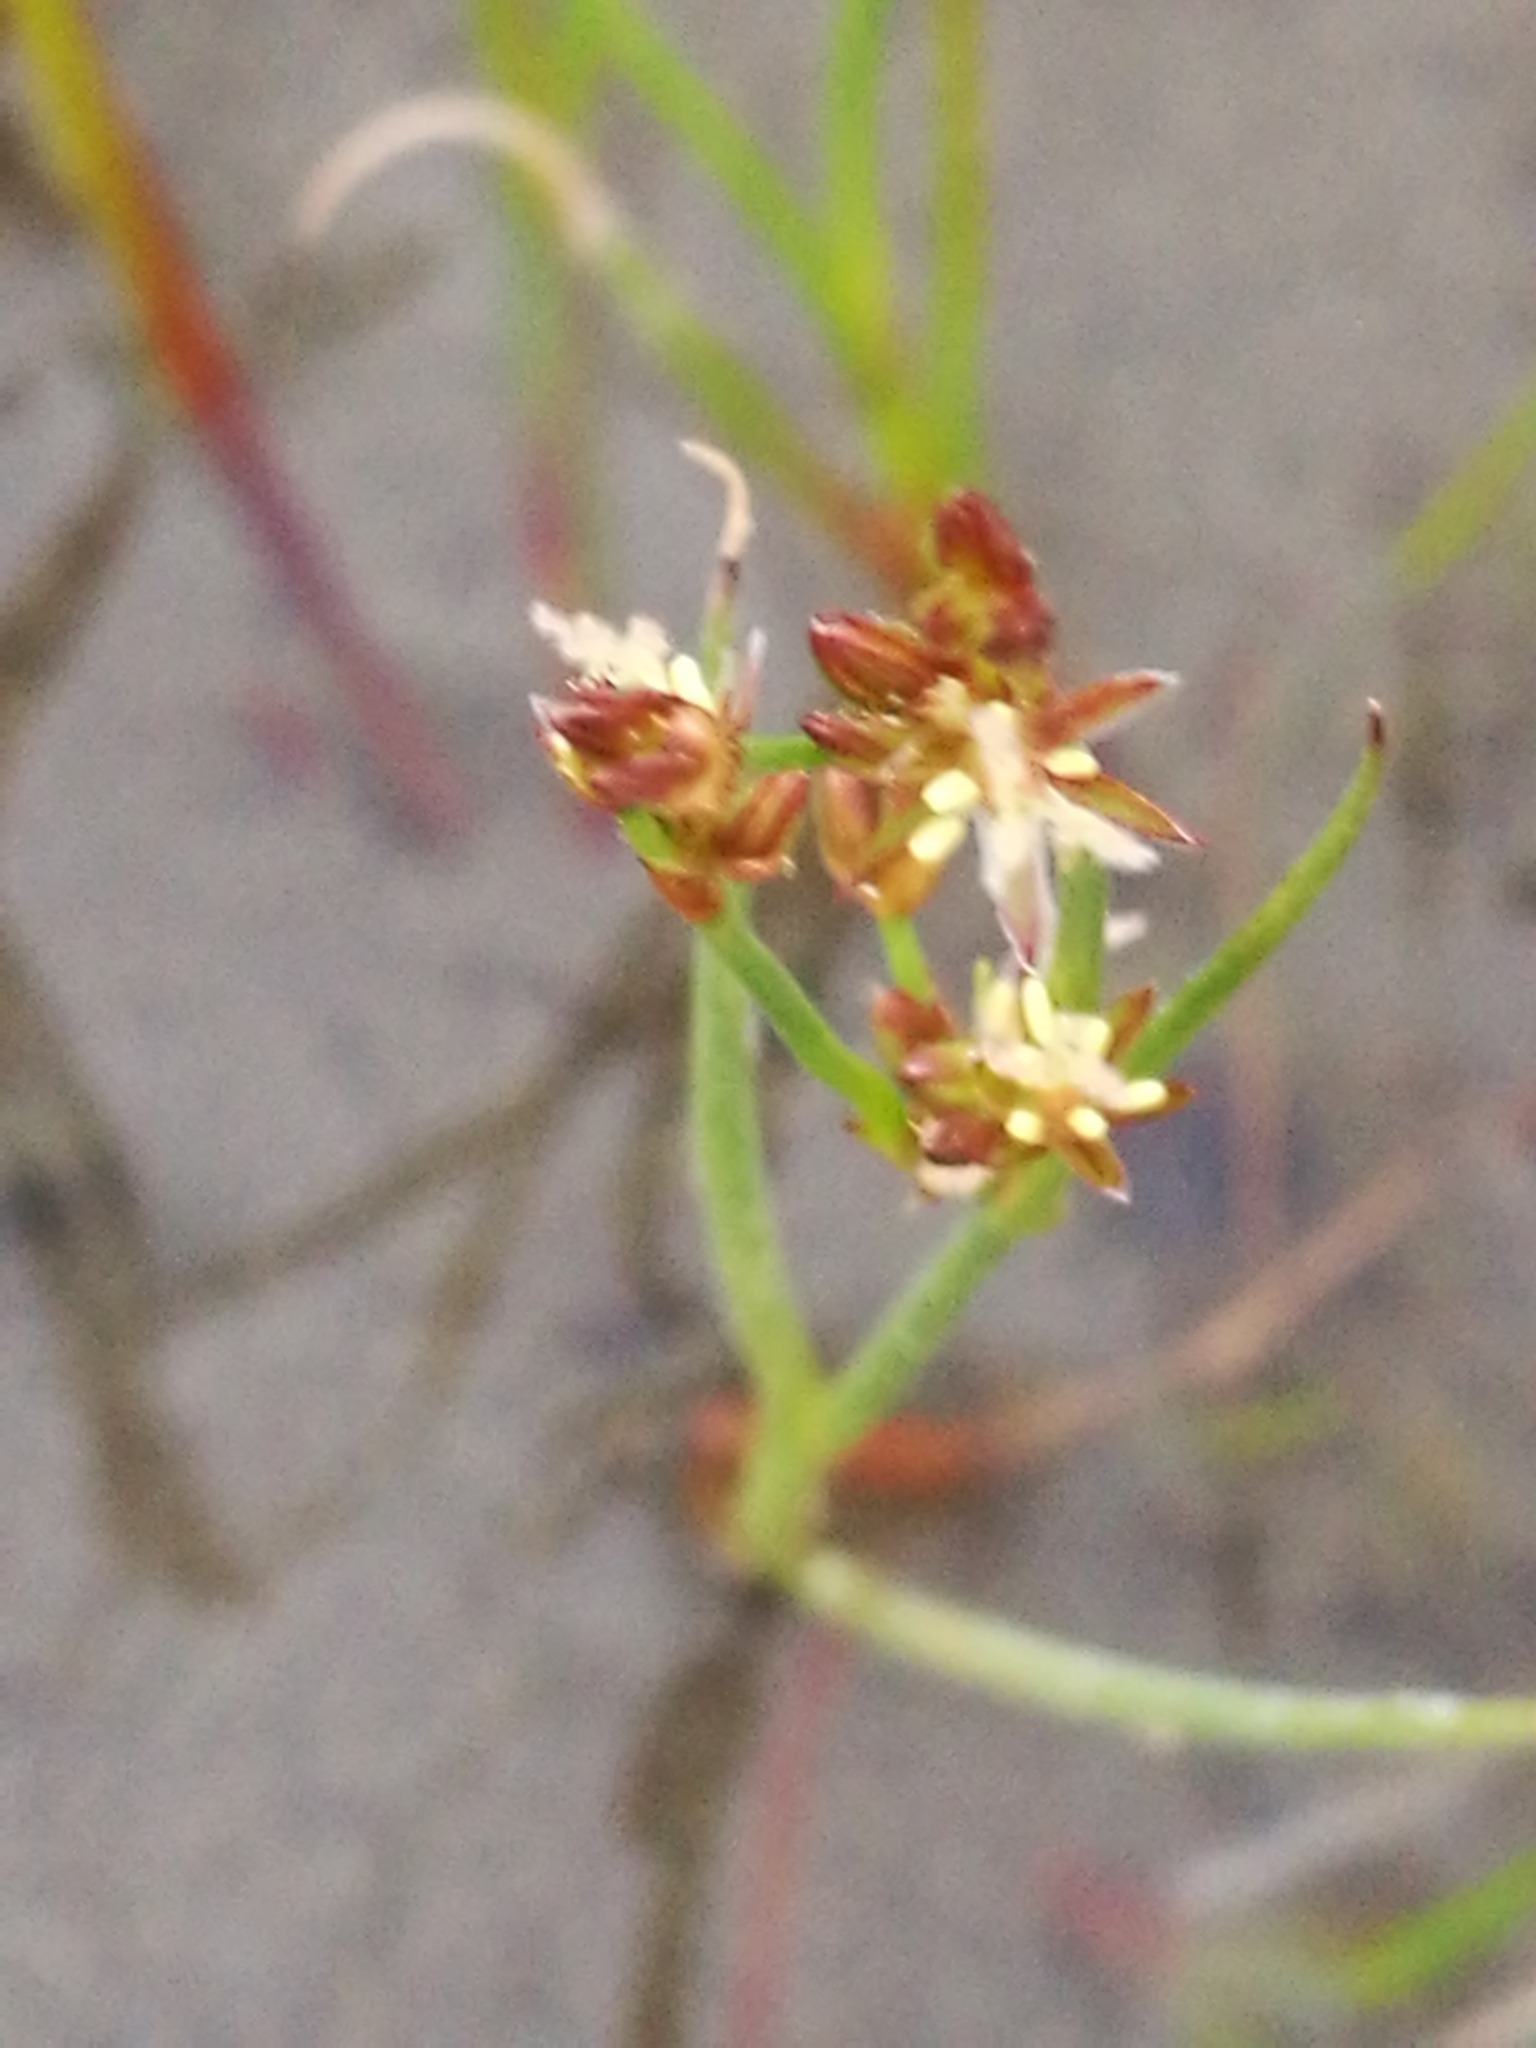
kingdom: Plantae
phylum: Tracheophyta
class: Liliopsida
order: Poales
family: Juncaceae
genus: Juncus
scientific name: Juncus articulatus
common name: Jointed rush
